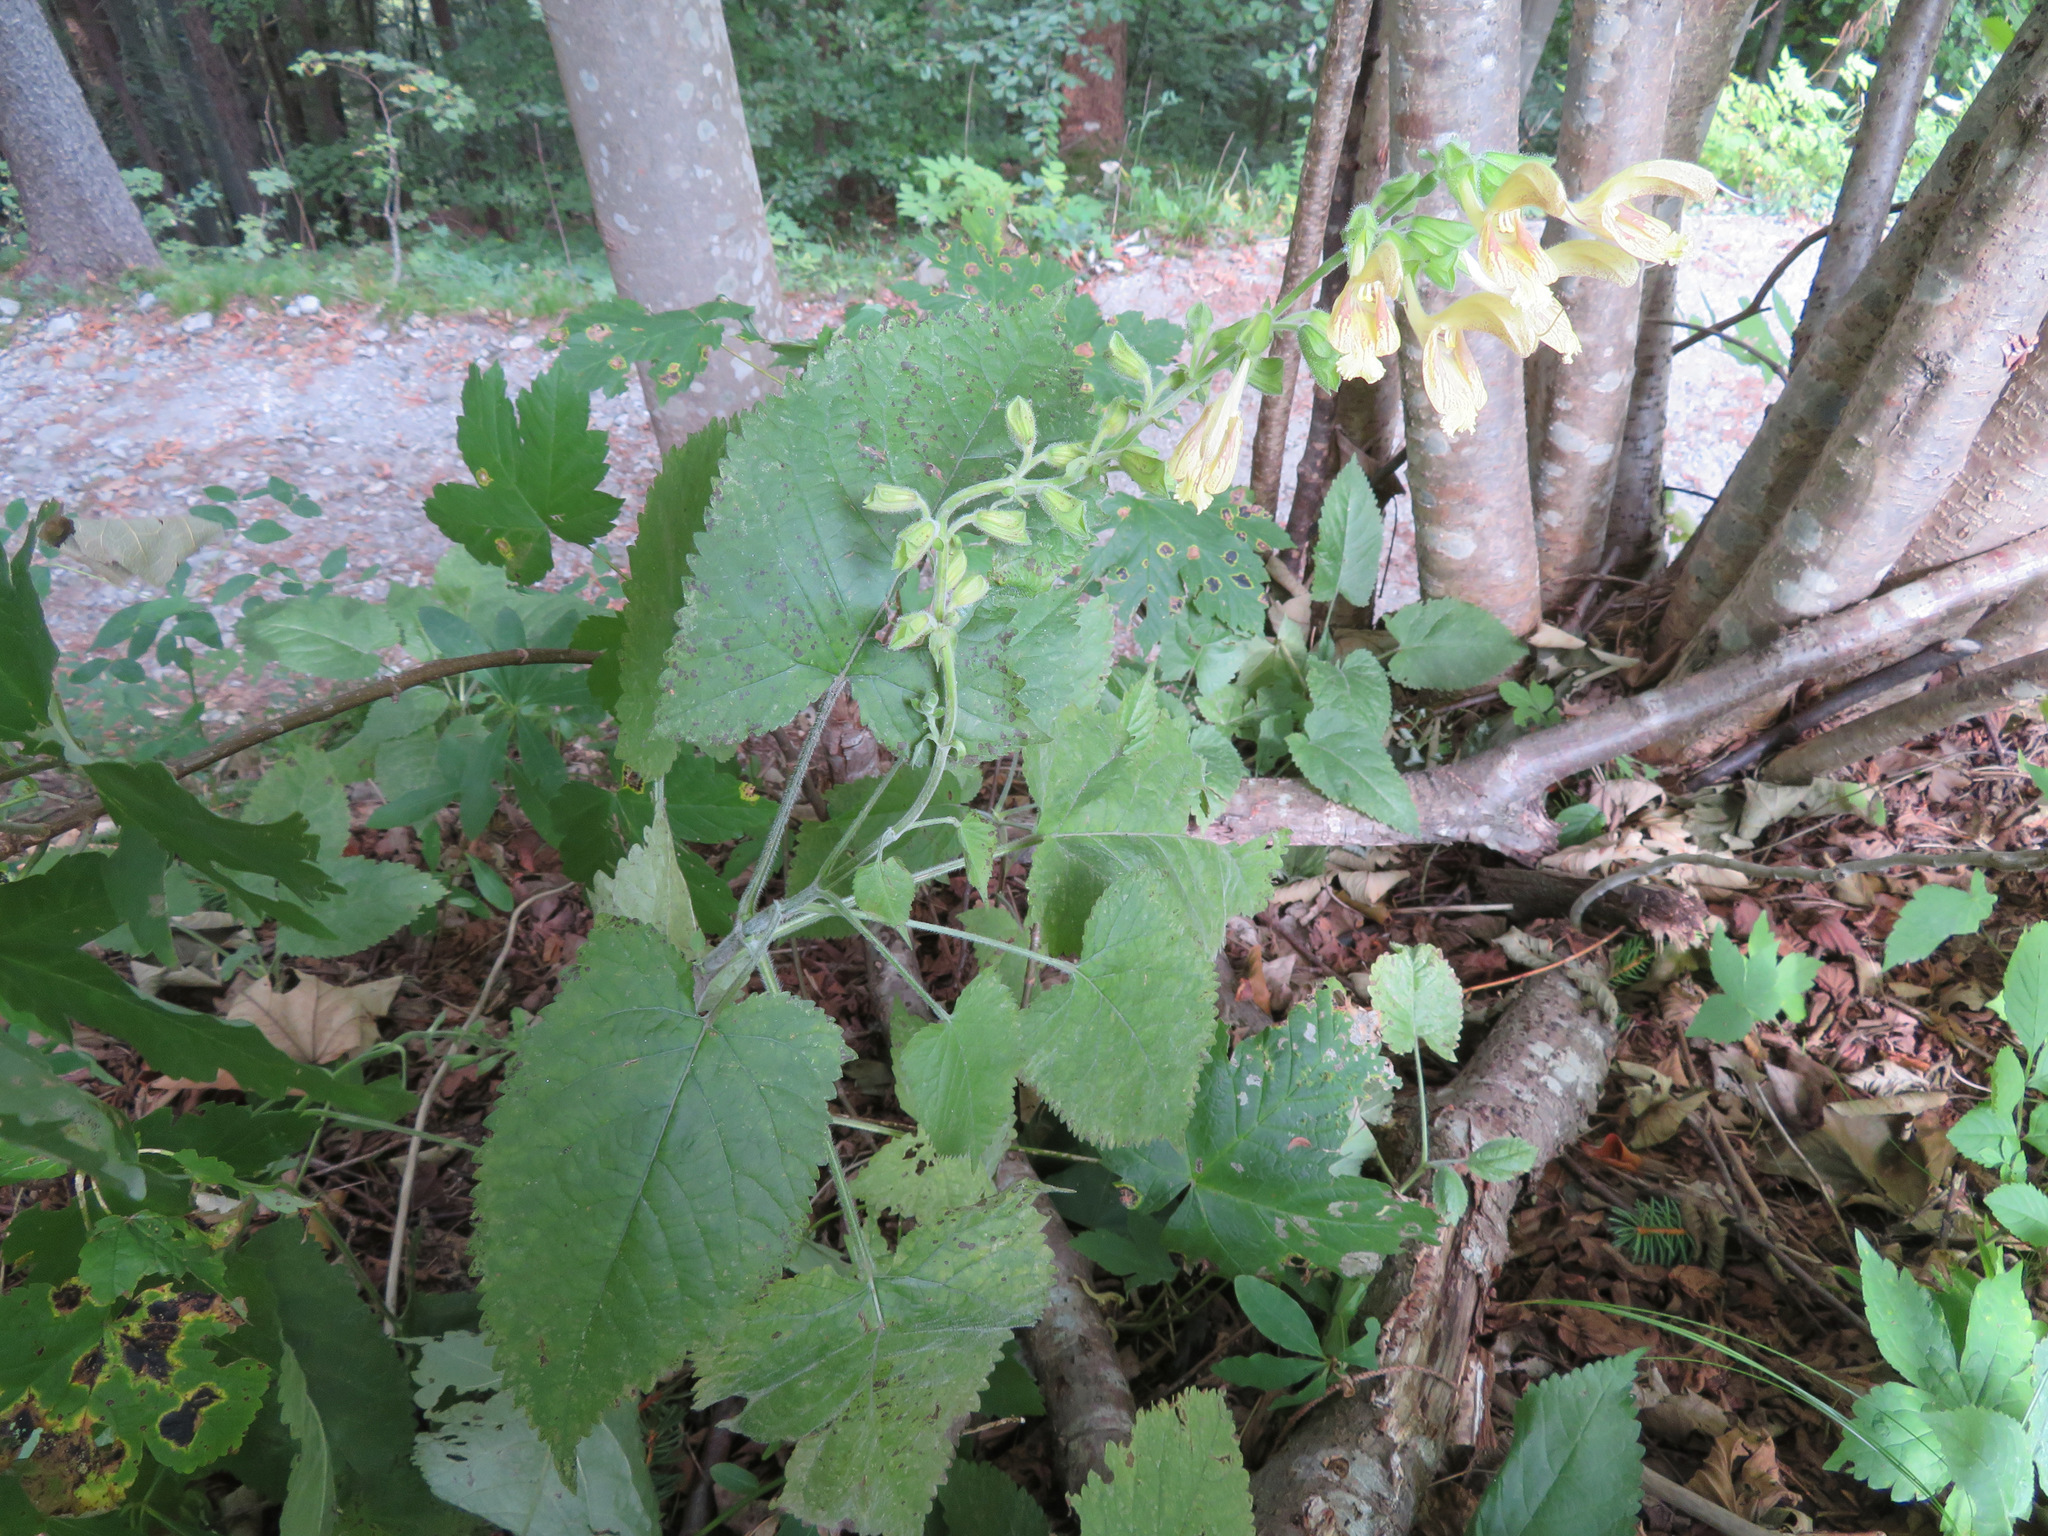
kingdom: Plantae
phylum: Tracheophyta
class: Magnoliopsida
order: Lamiales
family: Lamiaceae
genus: Salvia
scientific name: Salvia glutinosa
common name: Sticky clary
